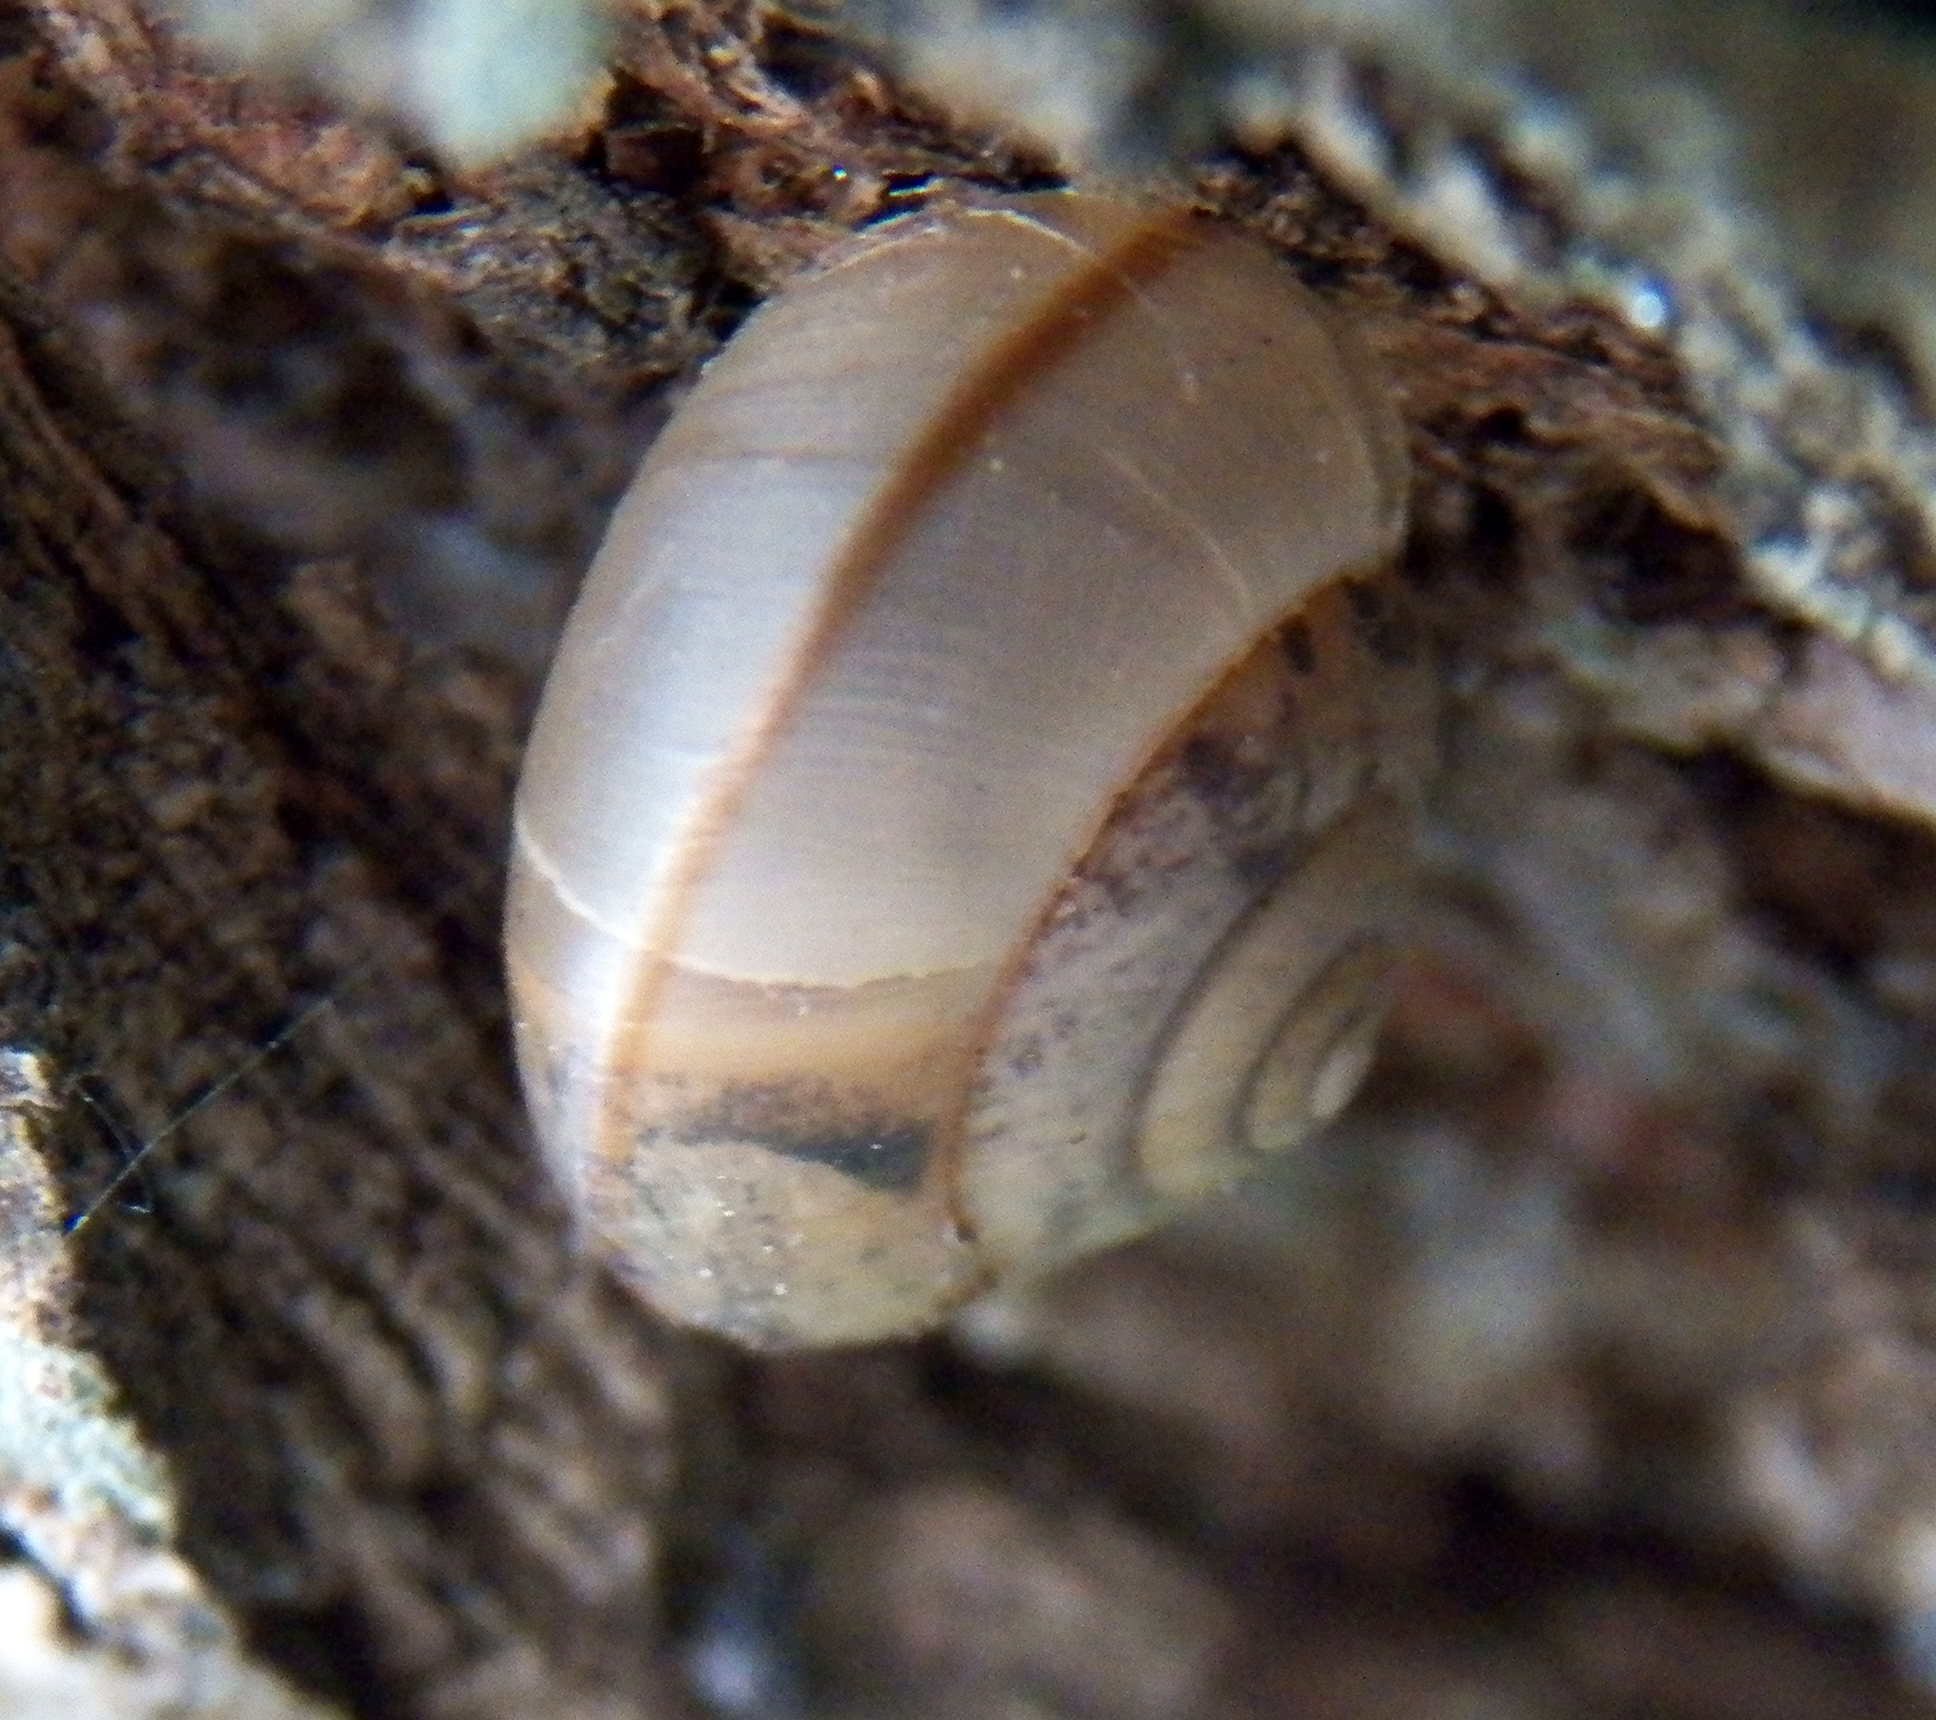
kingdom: Animalia
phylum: Mollusca
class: Gastropoda
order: Stylommatophora
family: Camaenidae
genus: Bradybaena
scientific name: Bradybaena similaris
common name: Asian trampsnail
